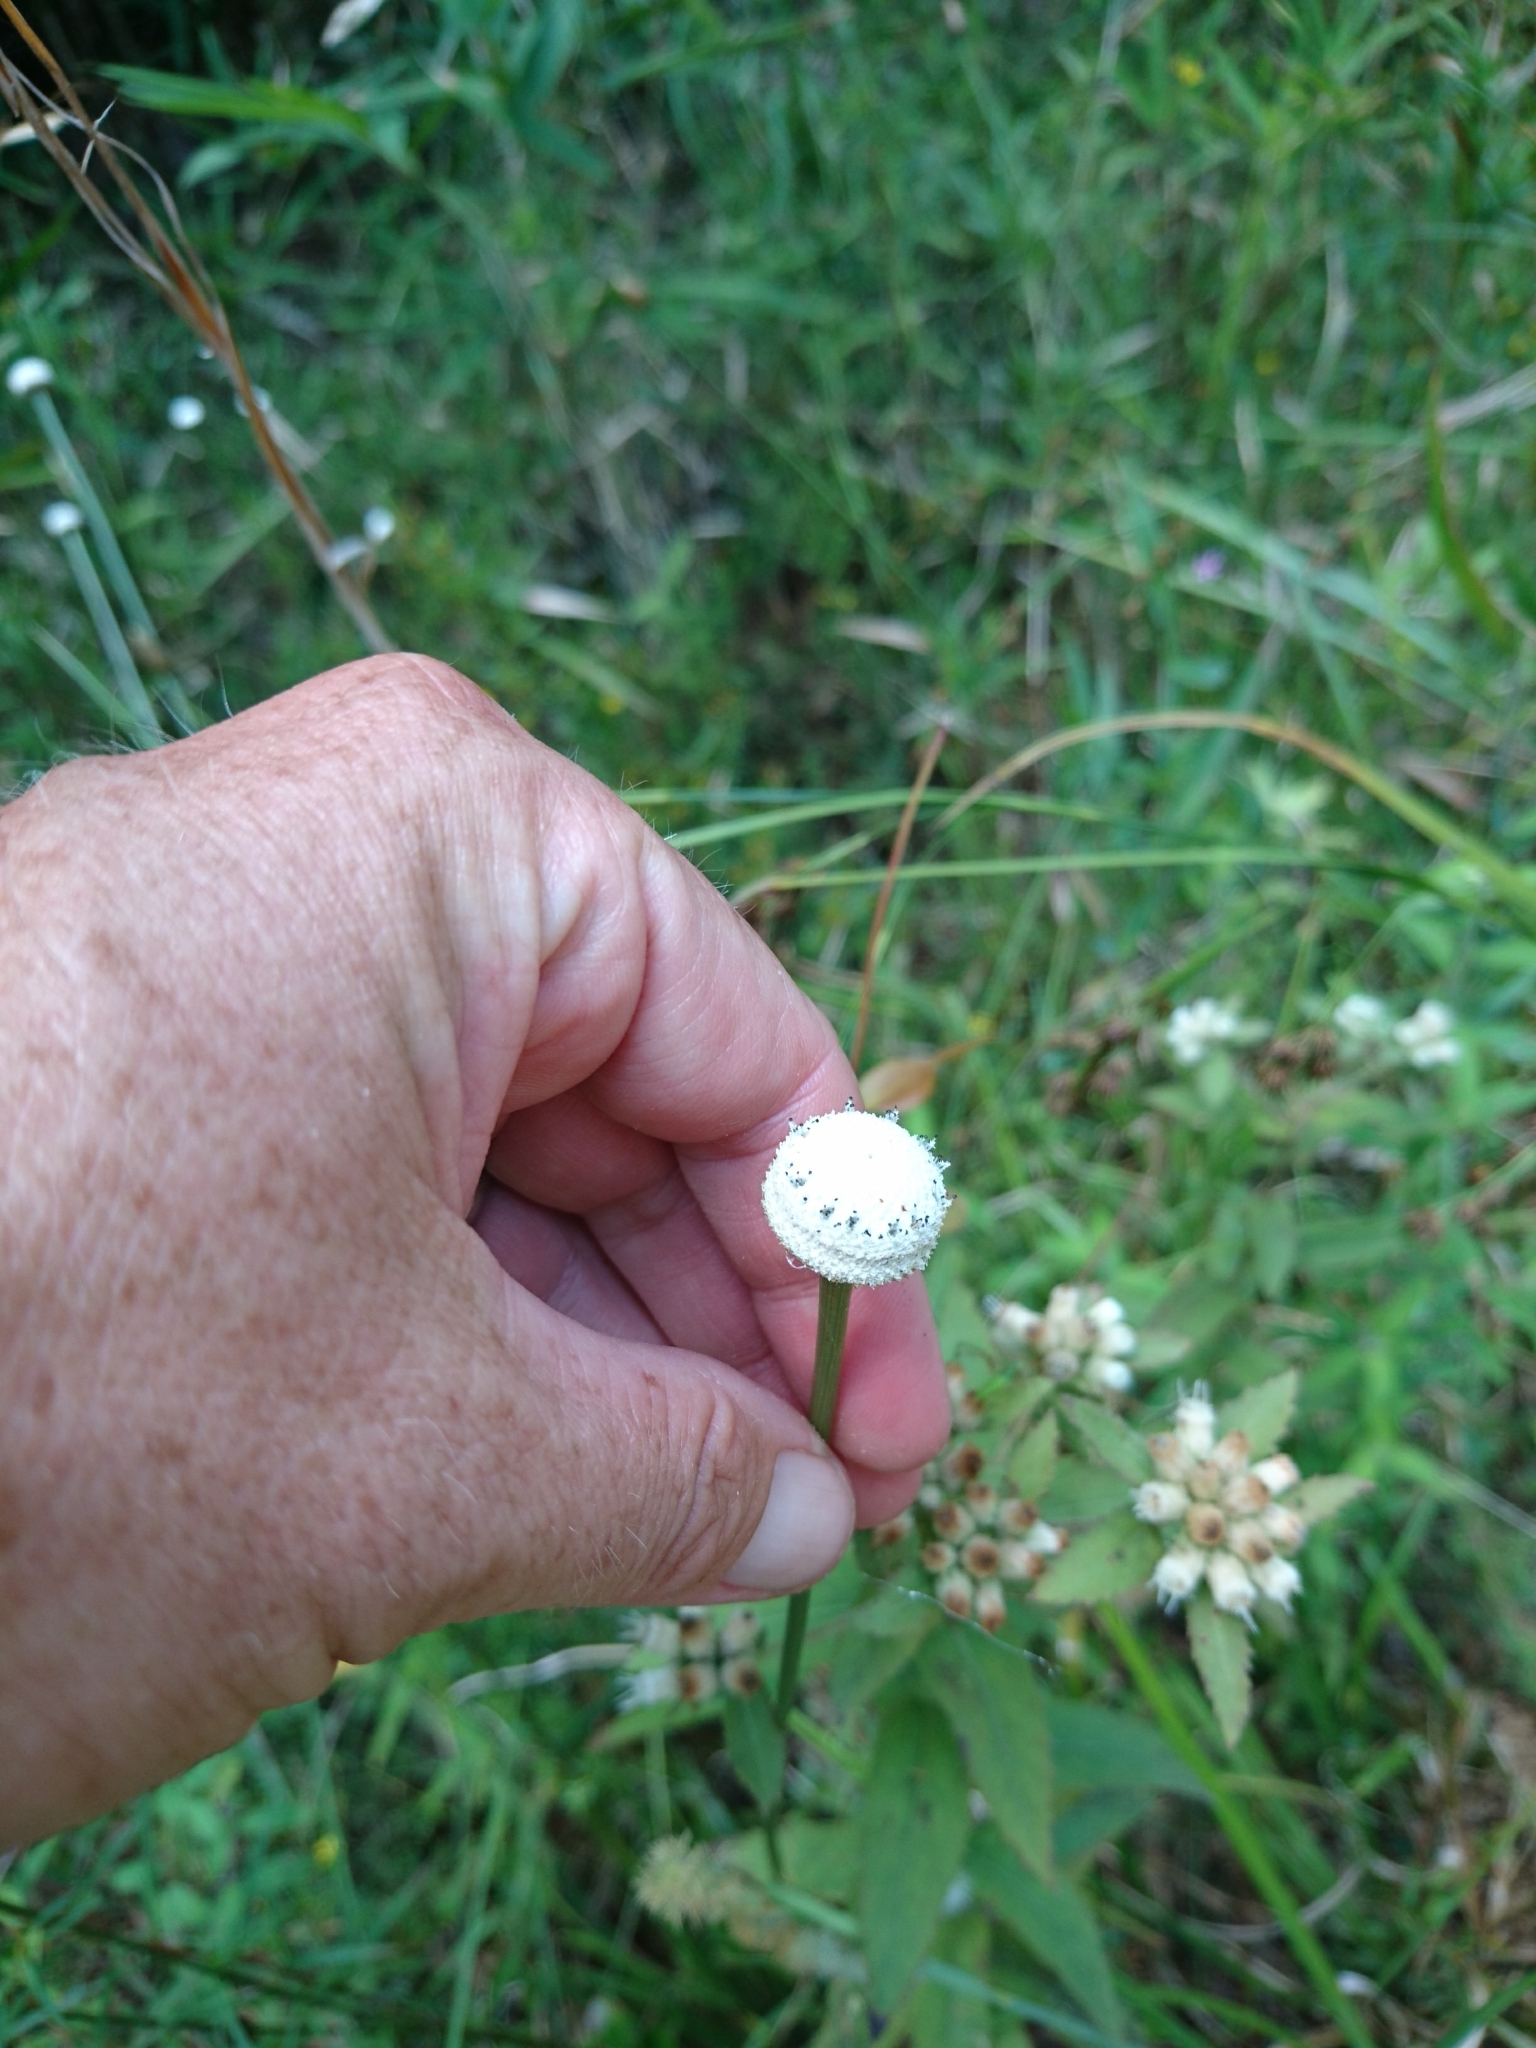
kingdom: Plantae
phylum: Tracheophyta
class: Liliopsida
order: Poales
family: Eriocaulaceae
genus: Eriocaulon
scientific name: Eriocaulon decangulare
